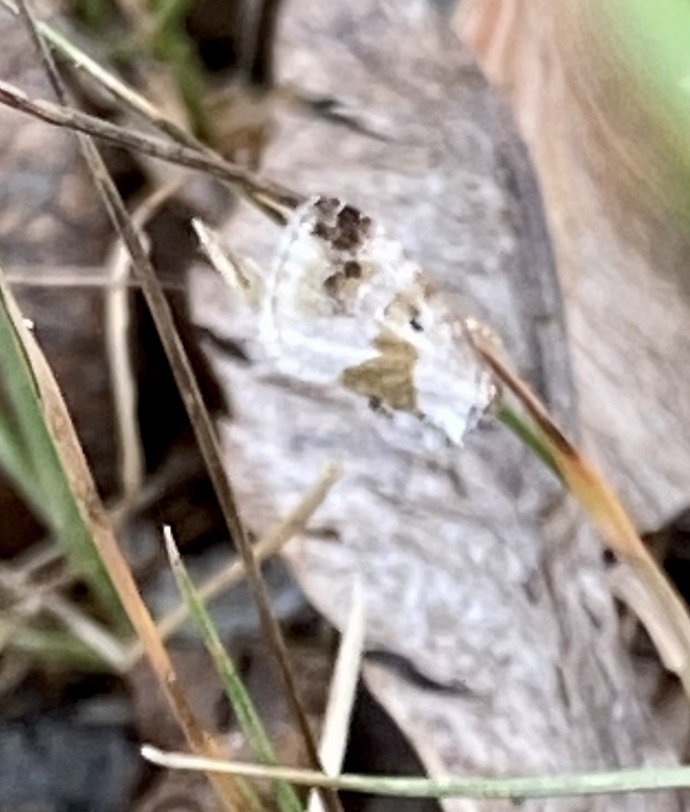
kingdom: Animalia
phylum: Arthropoda
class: Insecta
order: Lepidoptera
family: Noctuidae
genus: Maliattha
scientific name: Maliattha synochitis
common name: Black-dotted glyph
